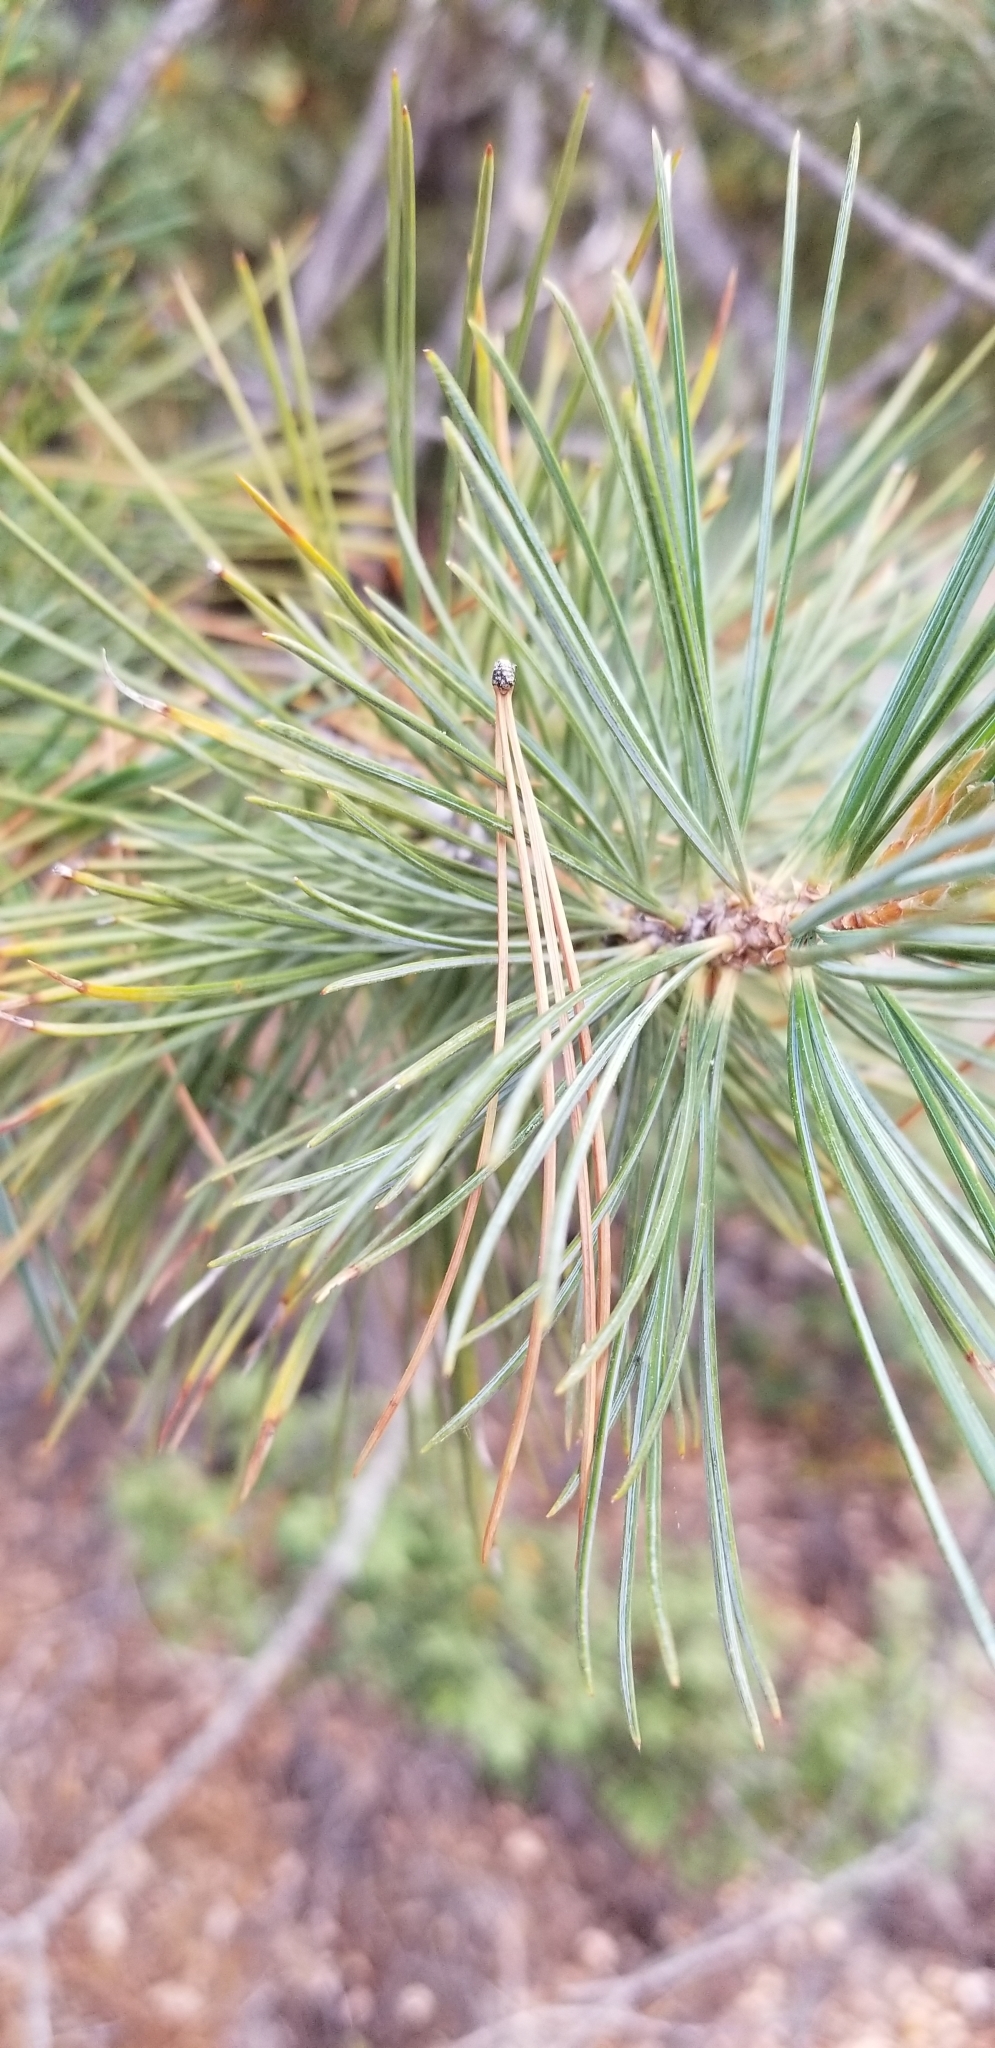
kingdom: Plantae
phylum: Tracheophyta
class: Pinopsida
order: Pinales
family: Pinaceae
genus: Pinus
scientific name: Pinus lambertiana
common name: Sugar pine
